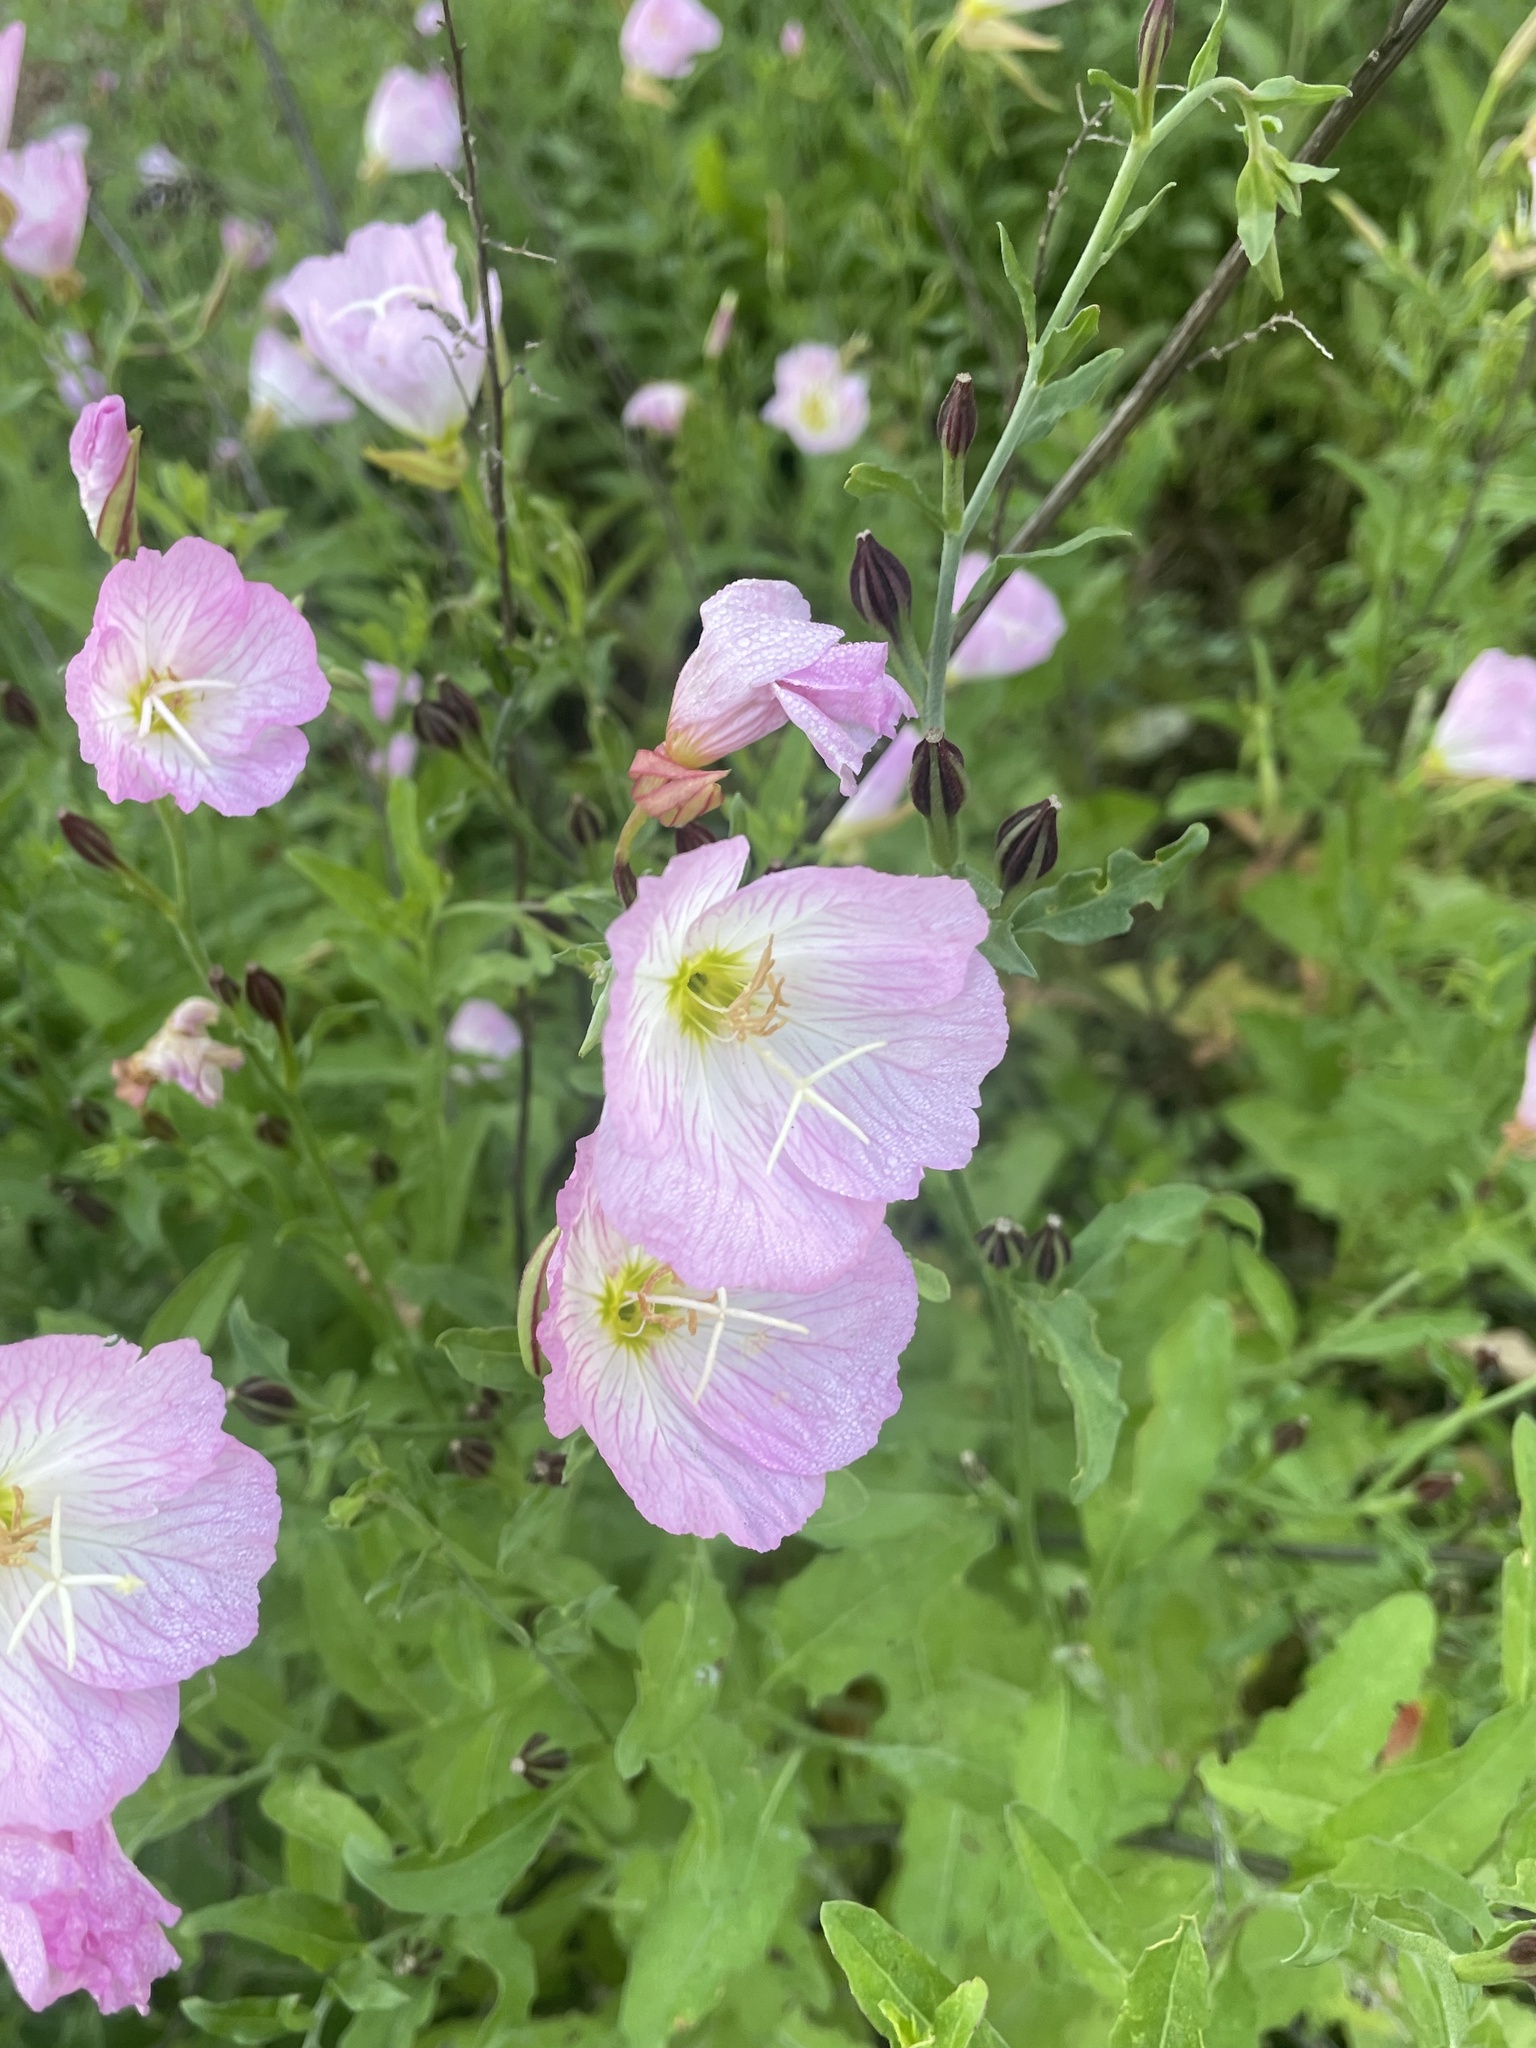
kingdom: Plantae
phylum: Tracheophyta
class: Magnoliopsida
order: Myrtales
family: Onagraceae
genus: Oenothera
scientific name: Oenothera speciosa
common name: White evening-primrose
